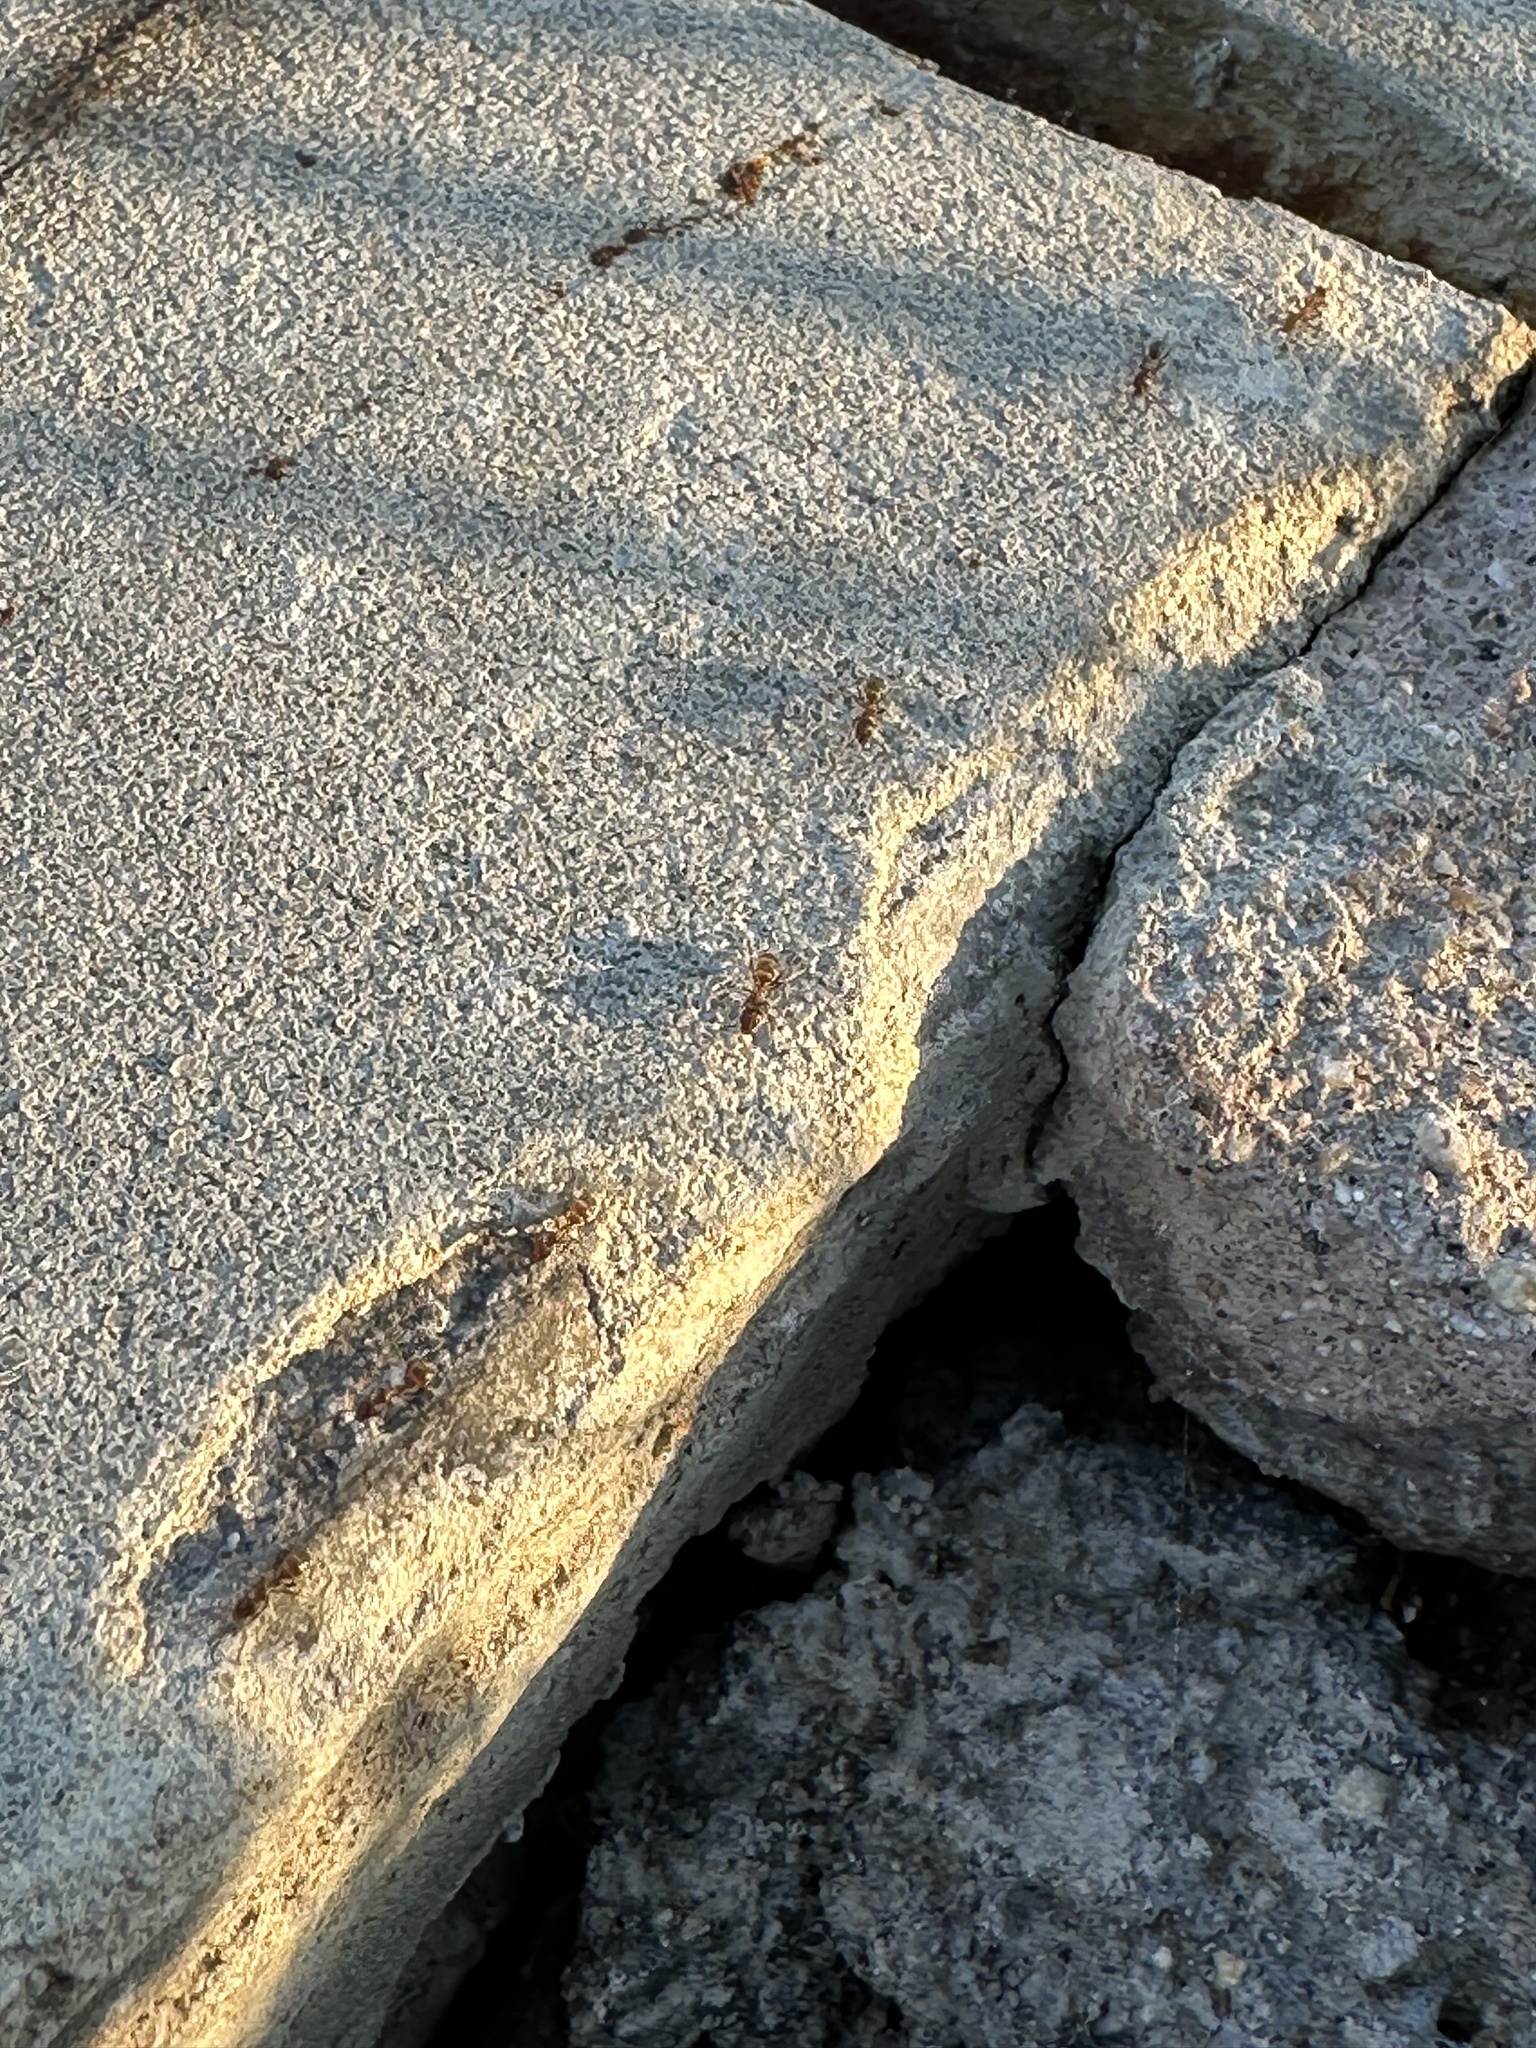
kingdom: Animalia
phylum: Arthropoda
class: Insecta
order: Hymenoptera
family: Formicidae
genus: Linepithema
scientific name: Linepithema humile
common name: Argentine ant
